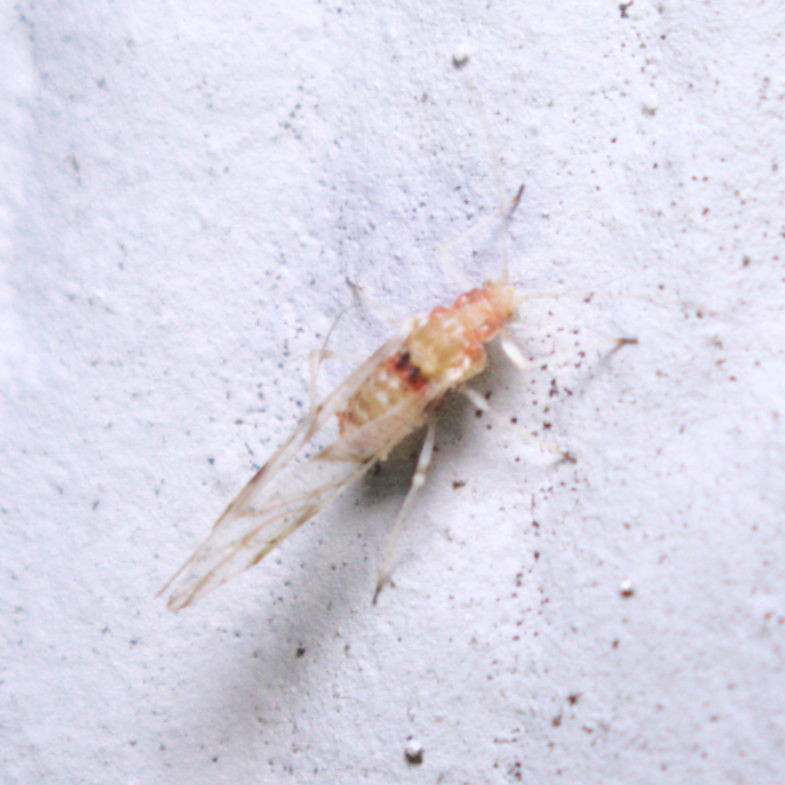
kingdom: Animalia
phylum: Arthropoda
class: Insecta
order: Hemiptera
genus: Neomyzocallis
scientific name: Neomyzocallis
